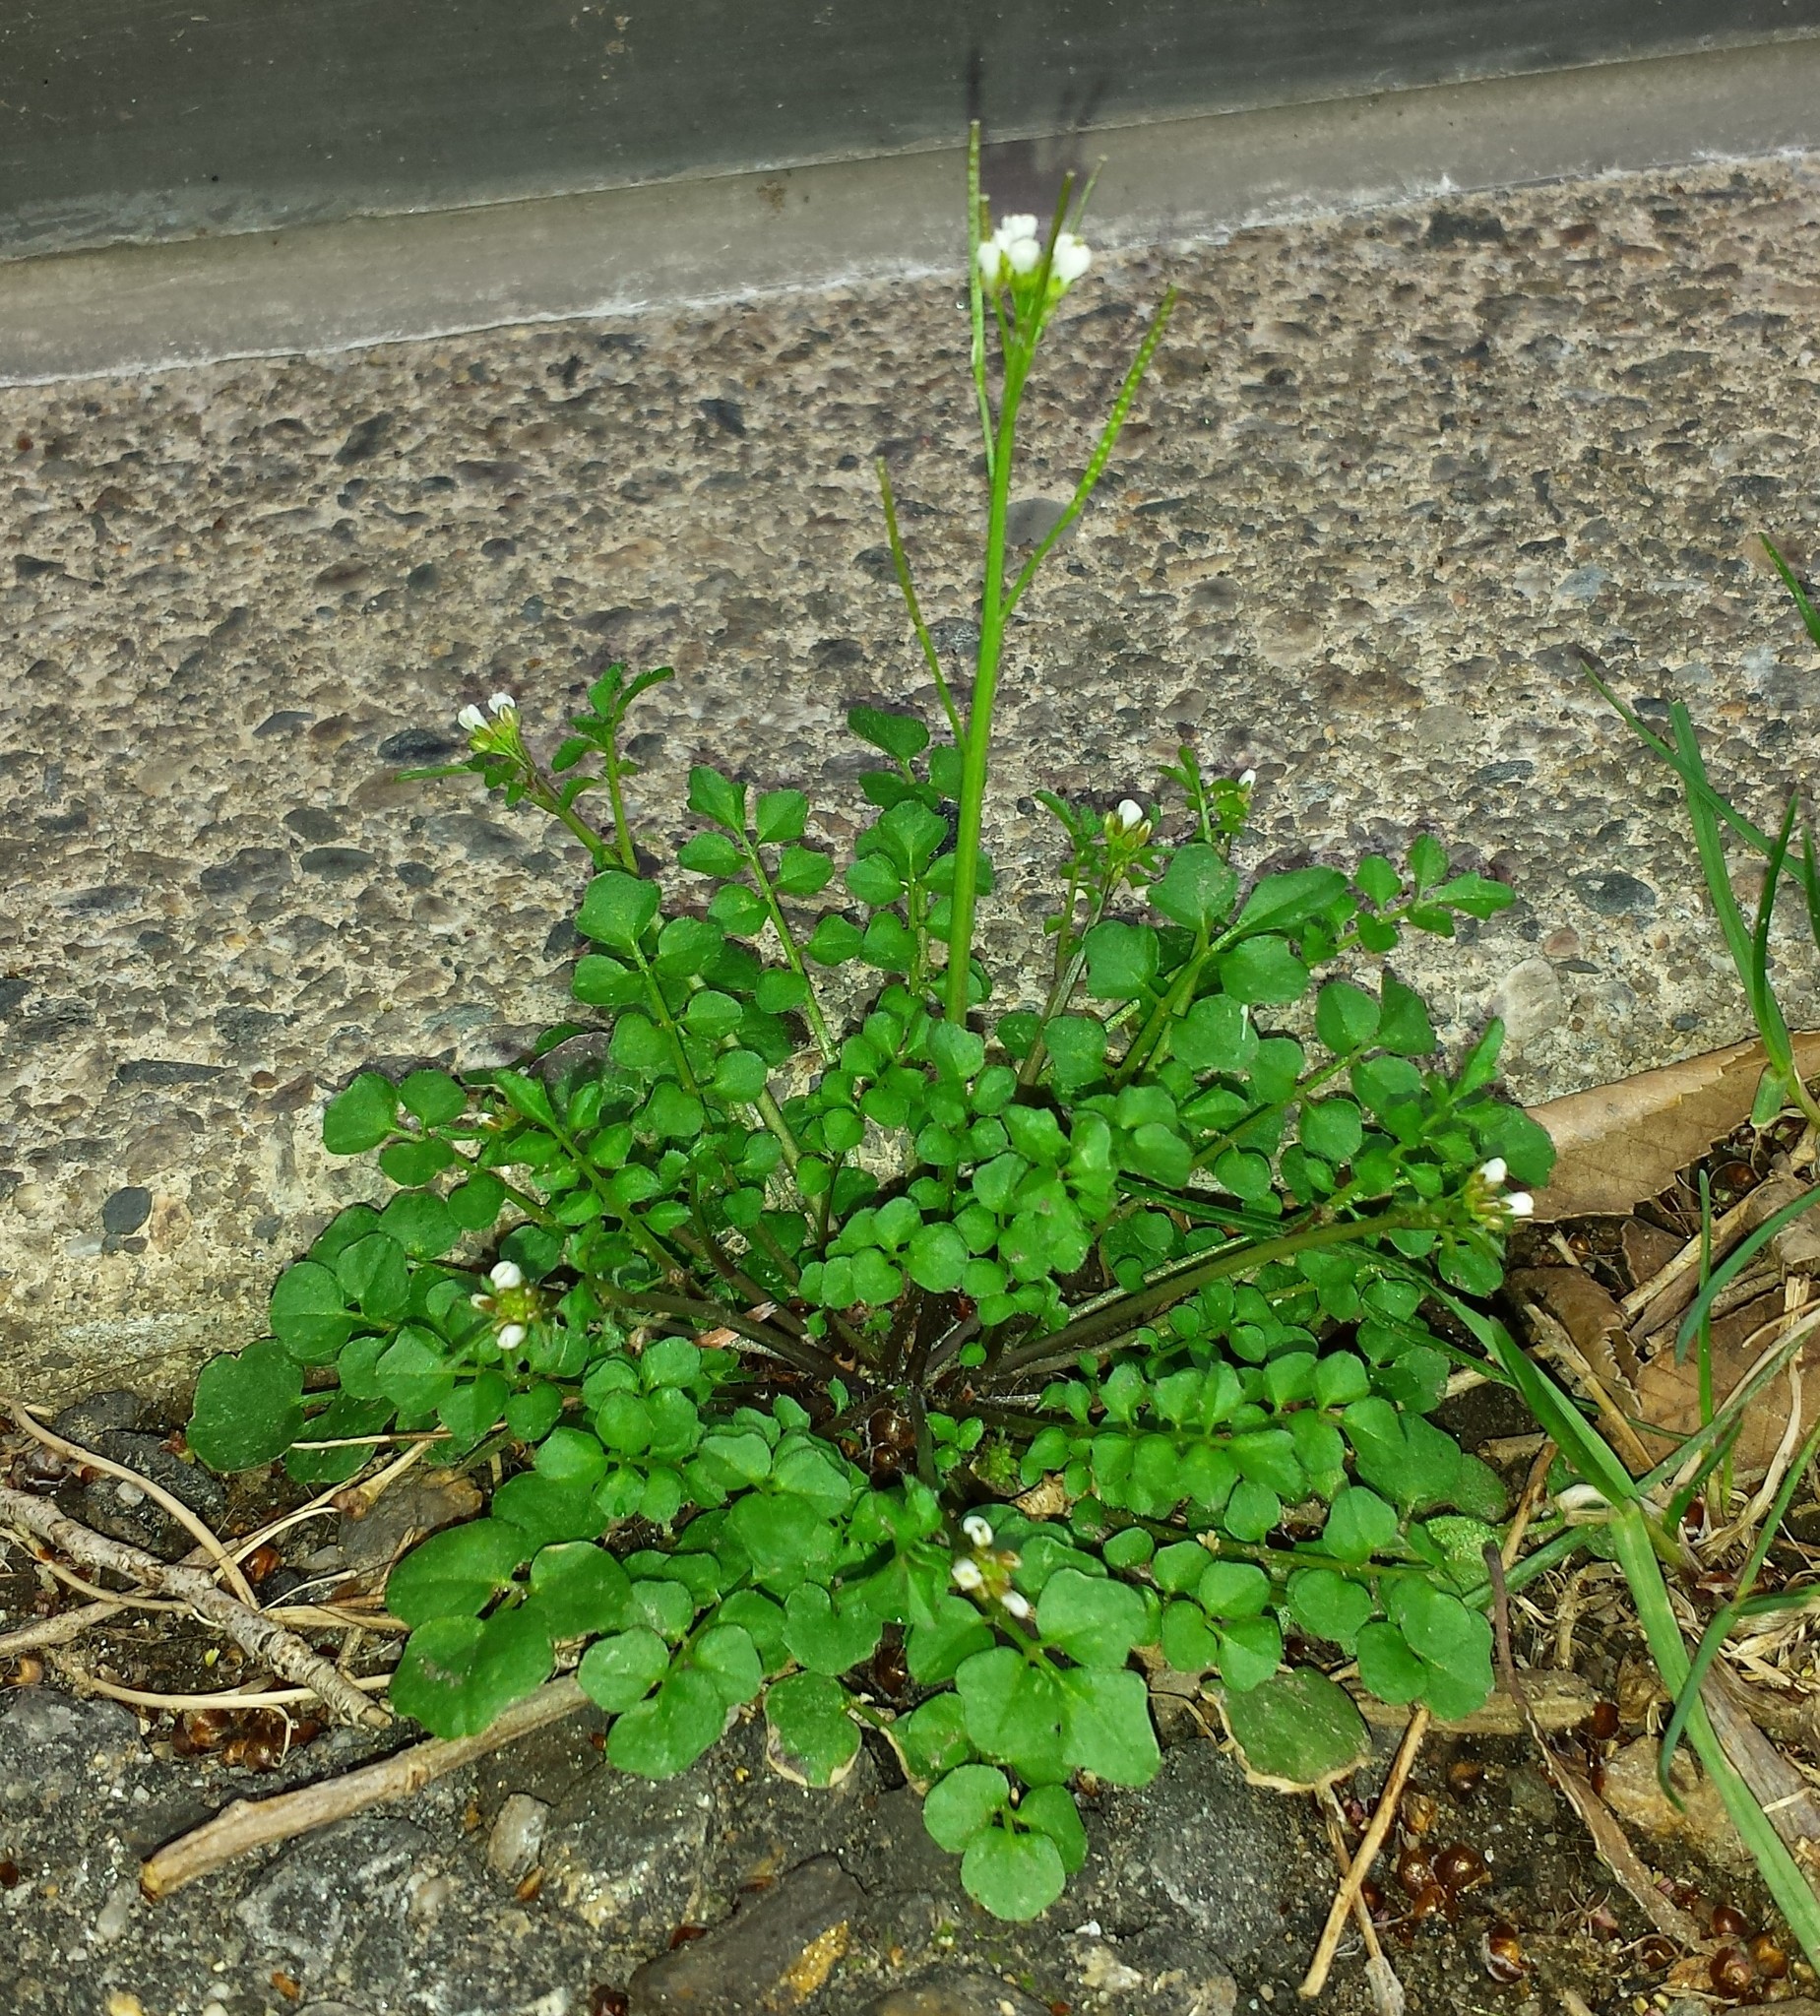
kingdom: Plantae
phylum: Tracheophyta
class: Magnoliopsida
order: Brassicales
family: Brassicaceae
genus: Cardamine
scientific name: Cardamine hirsuta
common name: Hairy bittercress
